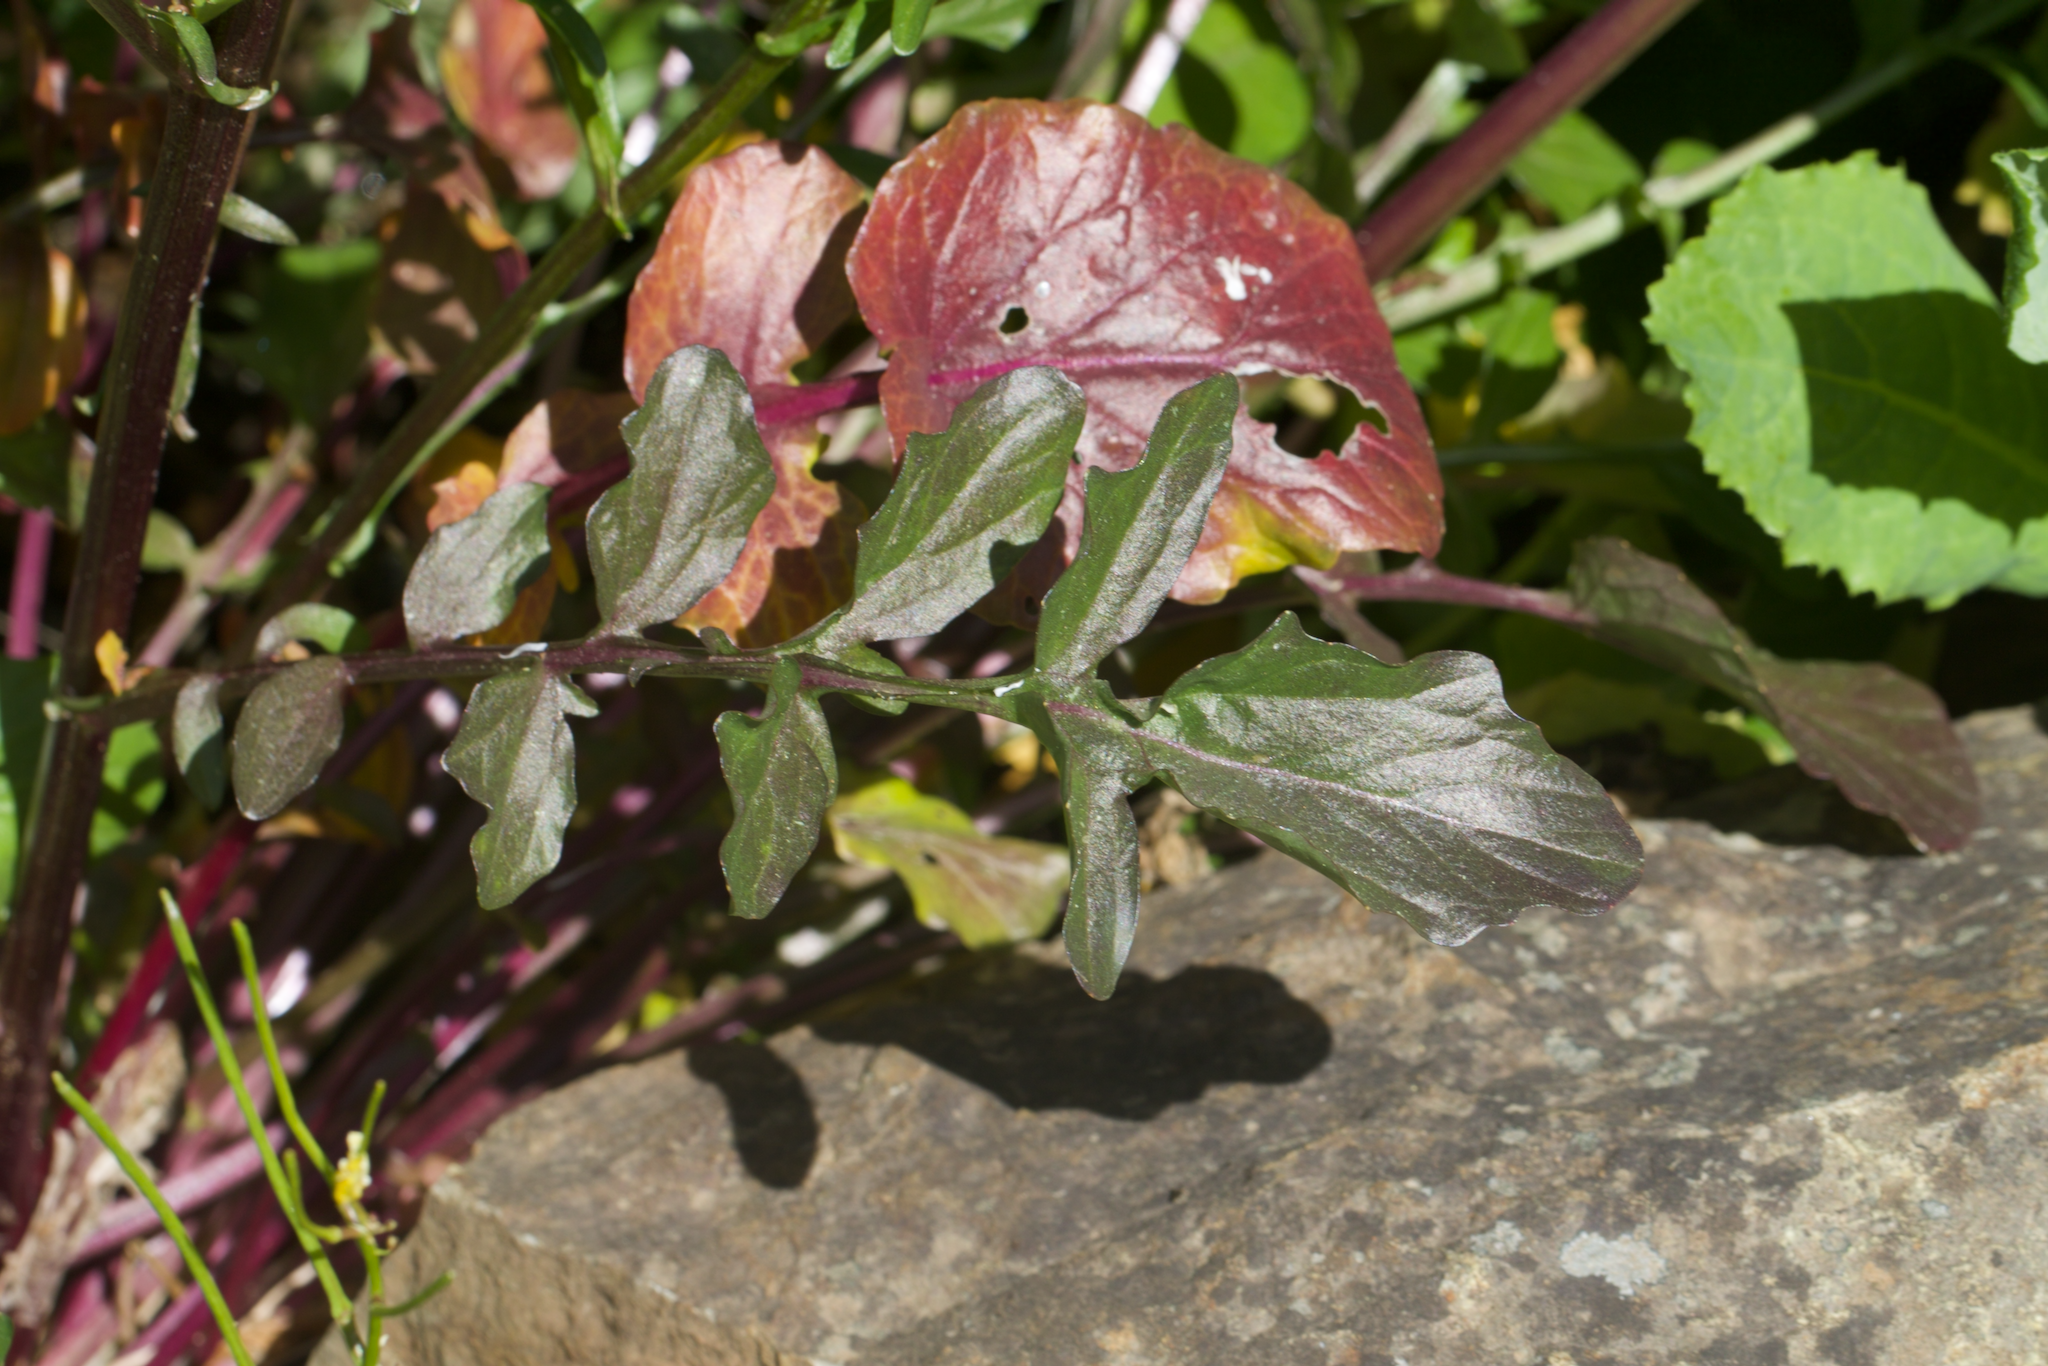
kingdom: Plantae
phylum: Tracheophyta
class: Magnoliopsida
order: Brassicales
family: Brassicaceae
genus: Barbarea
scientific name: Barbarea orthoceras
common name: American wintercress
